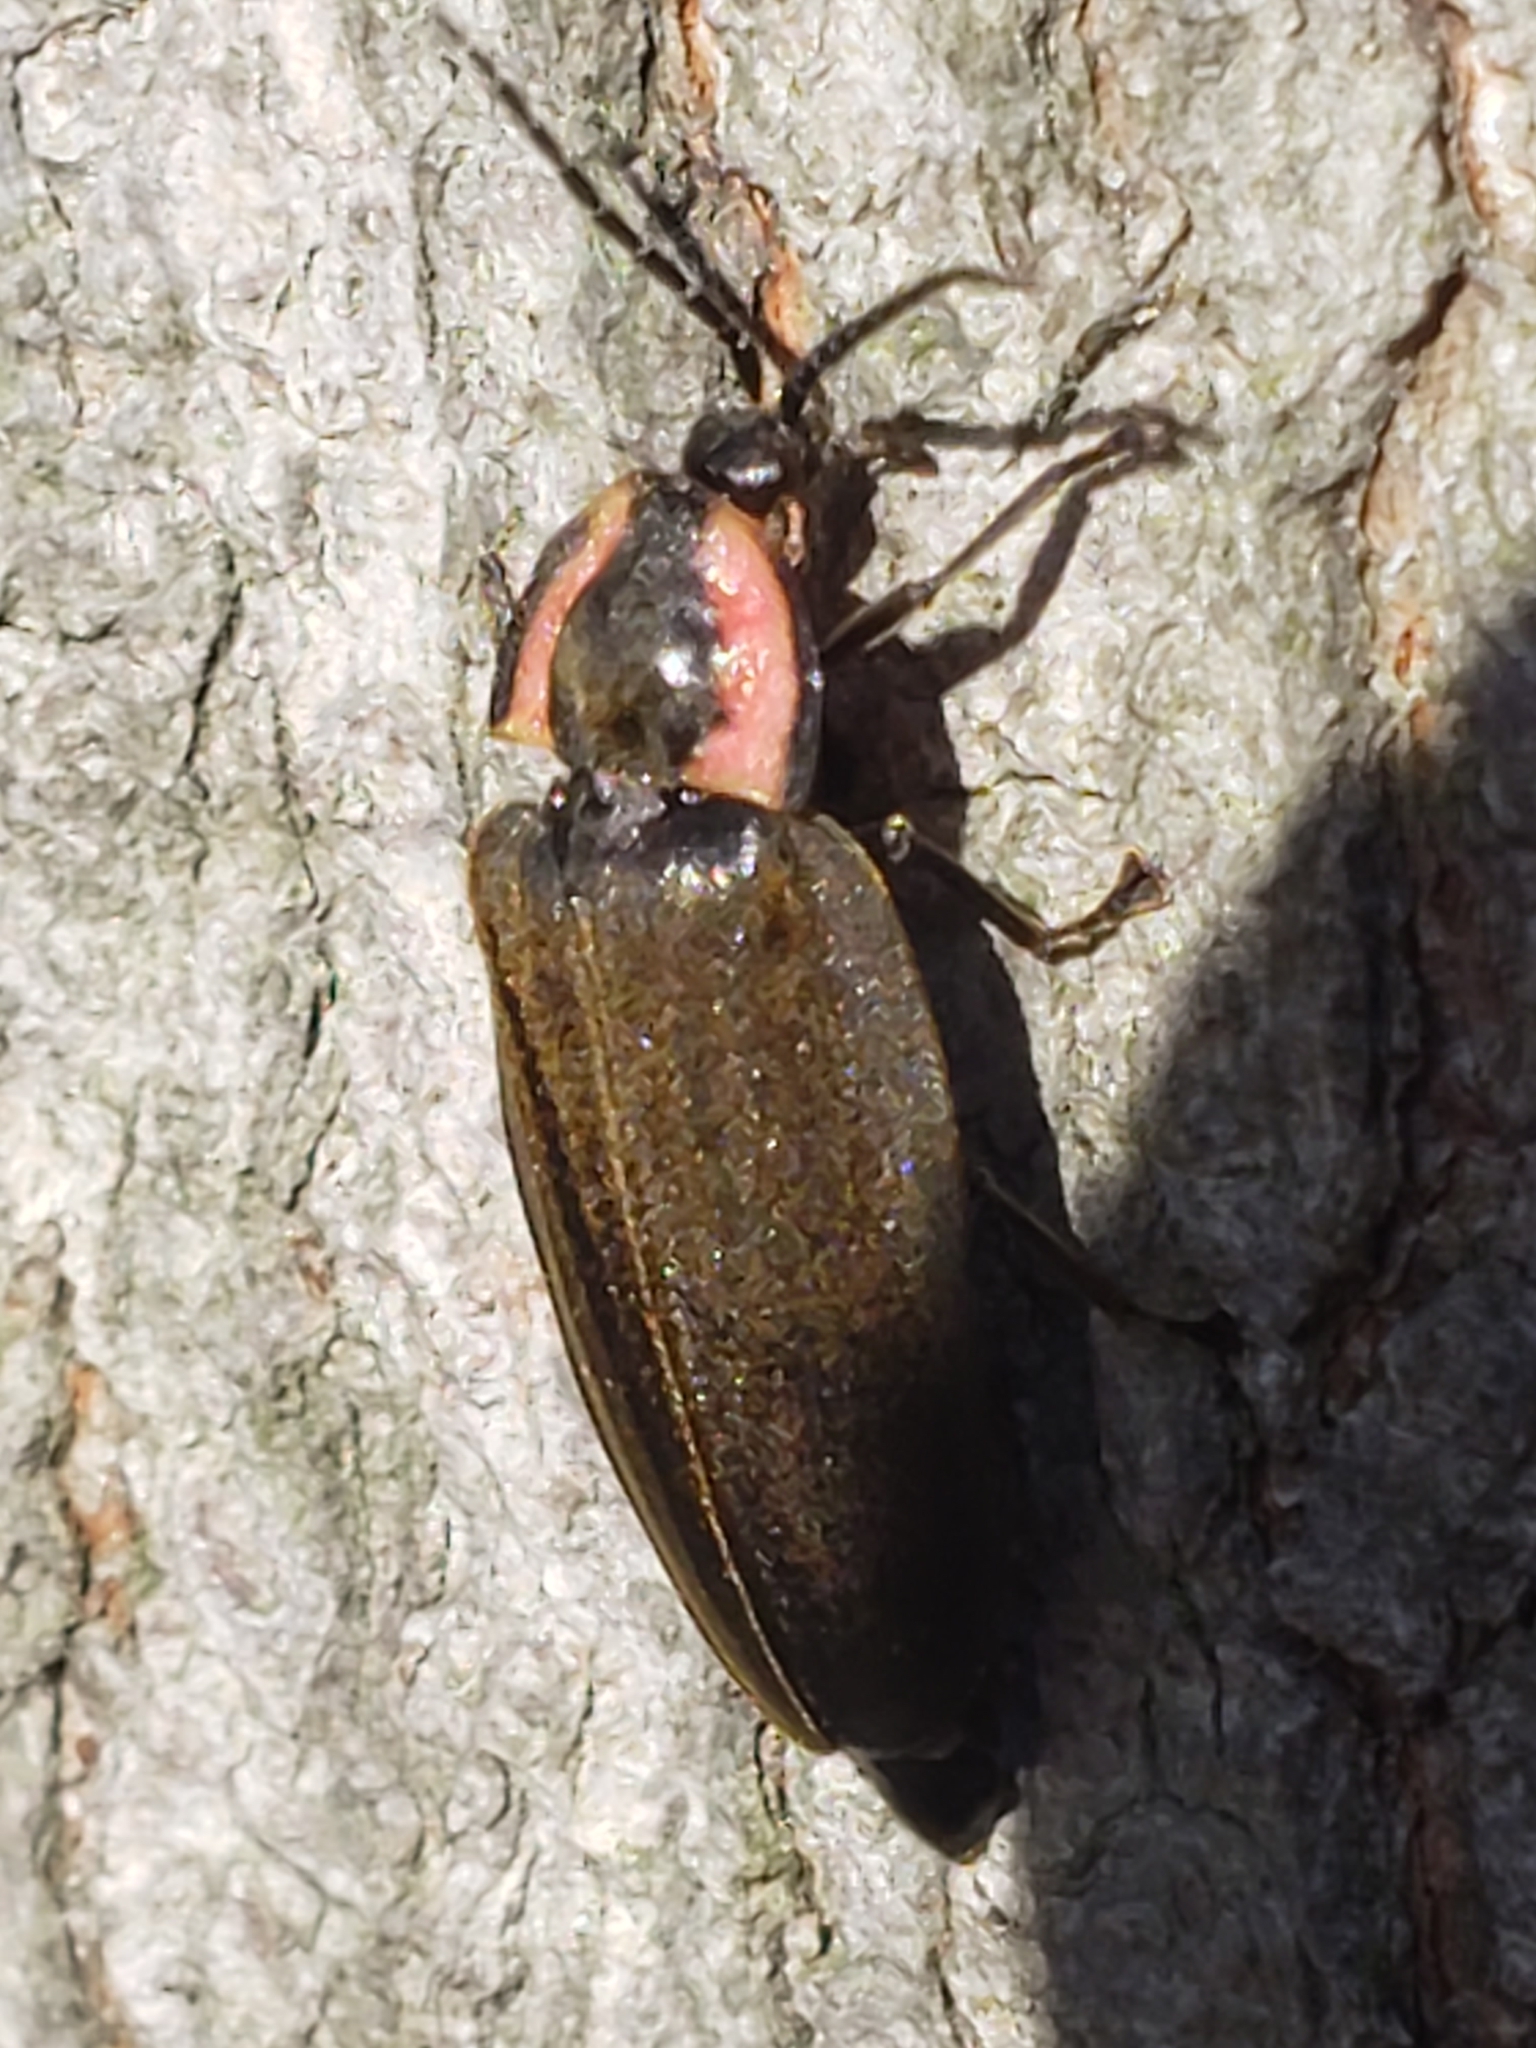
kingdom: Animalia
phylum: Arthropoda
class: Insecta
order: Coleoptera
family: Lampyridae
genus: Photinus
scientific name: Photinus corrusca
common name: Winter firefly
